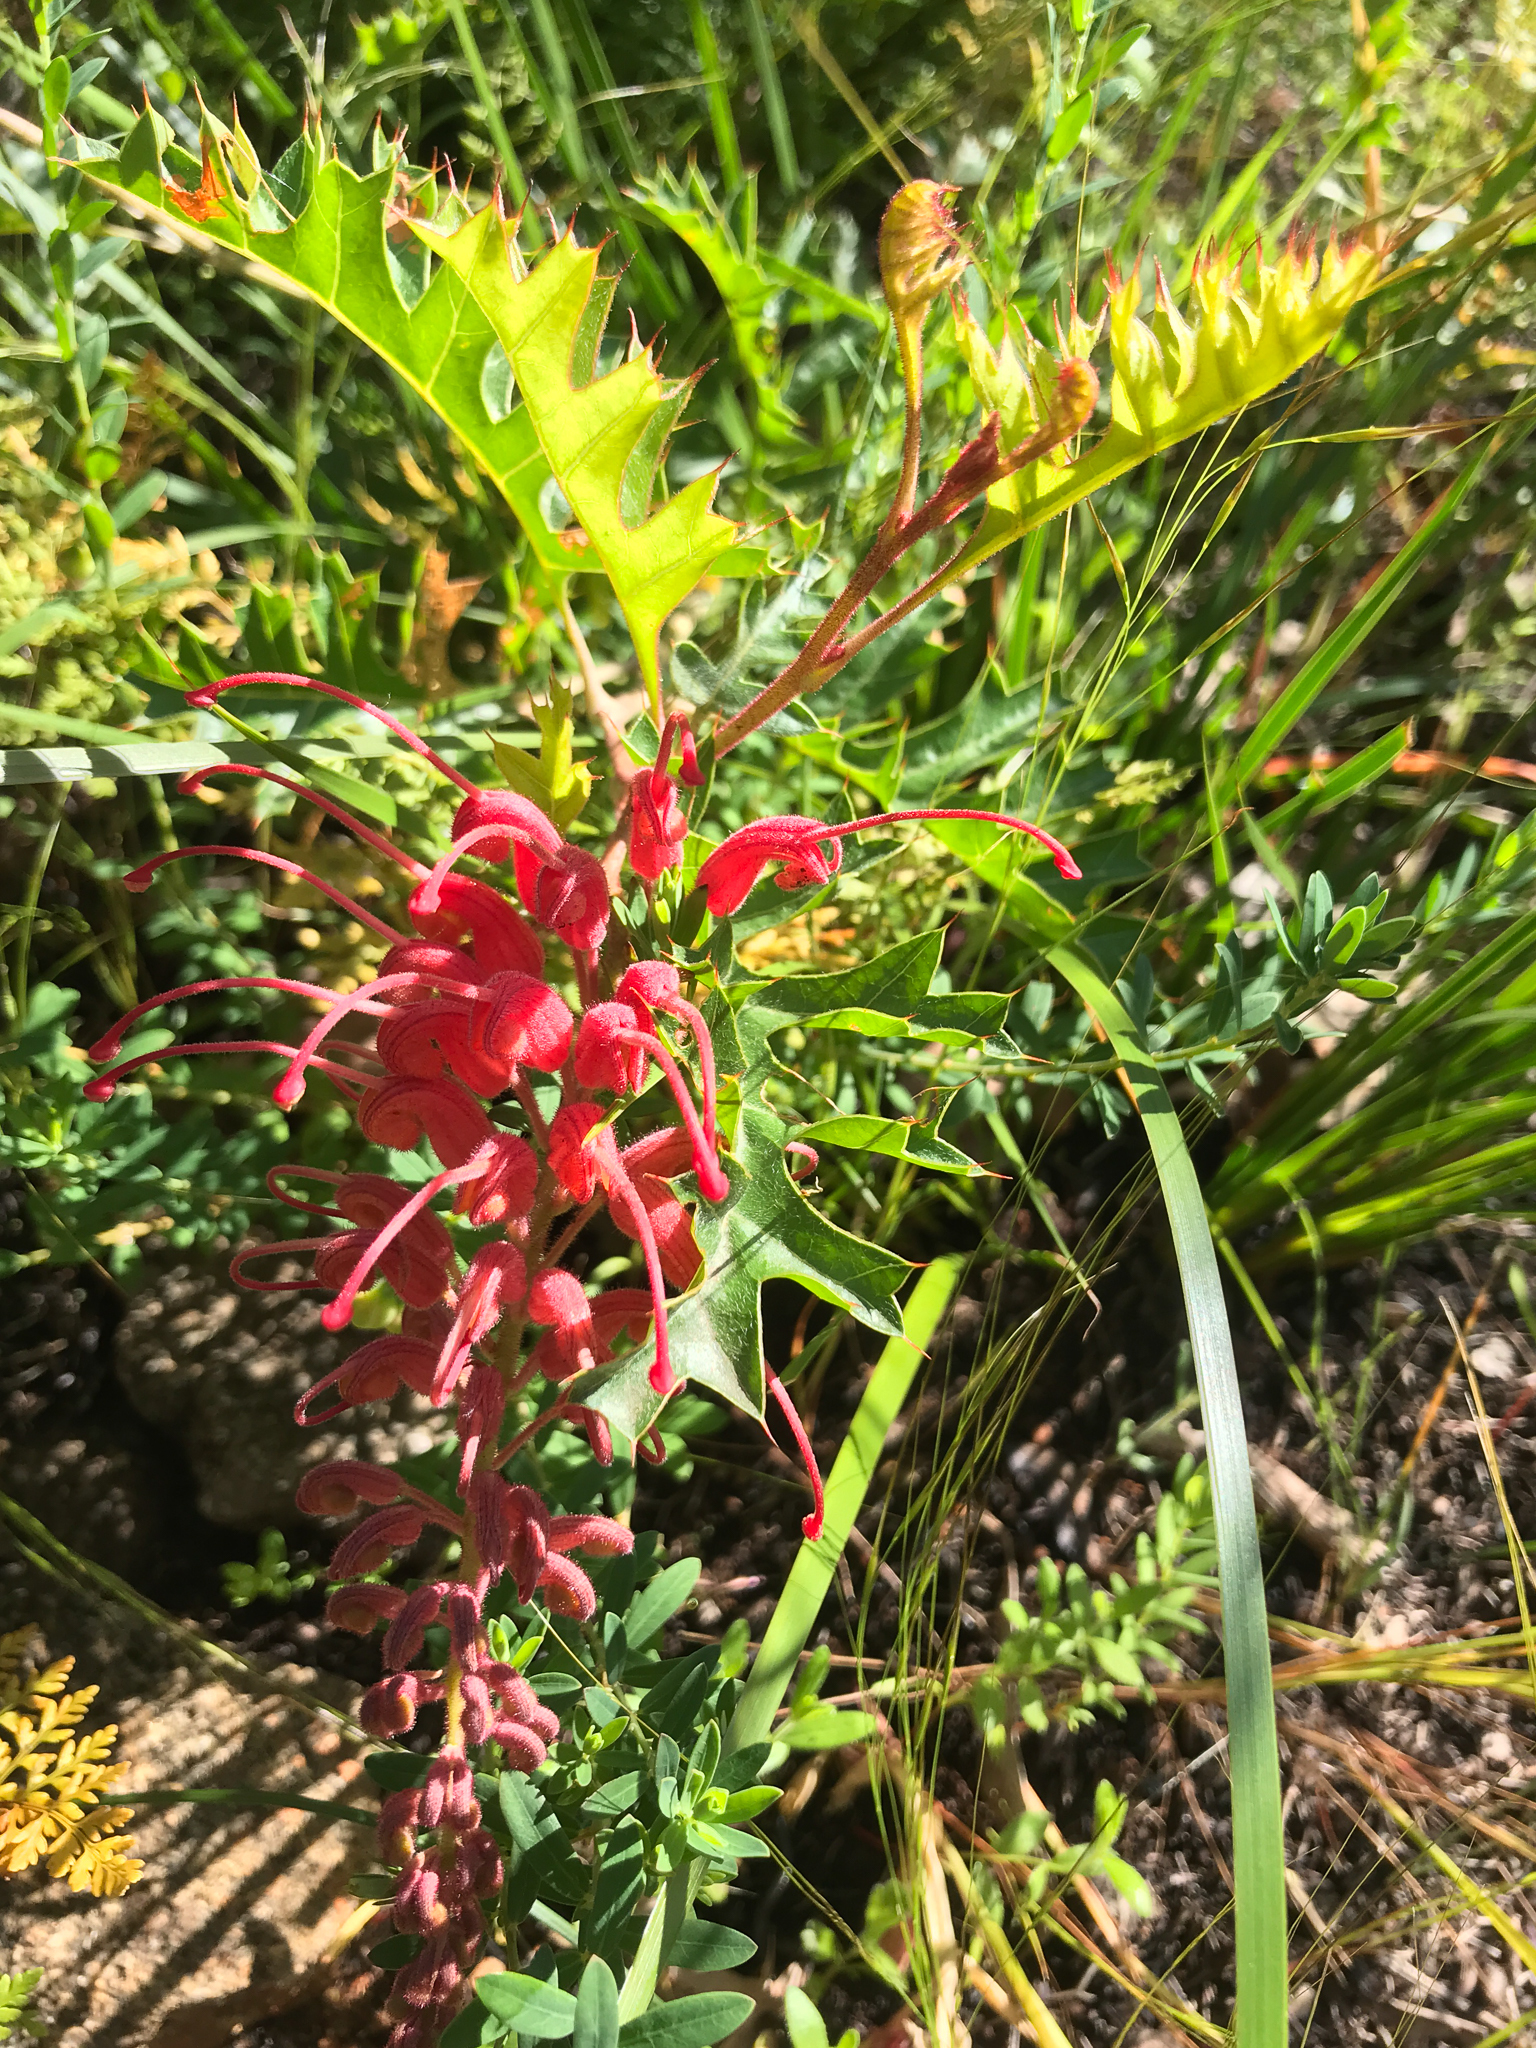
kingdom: Plantae
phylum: Tracheophyta
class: Magnoliopsida
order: Proteales
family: Proteaceae
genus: Grevillea
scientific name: Grevillea bipinnatifida
